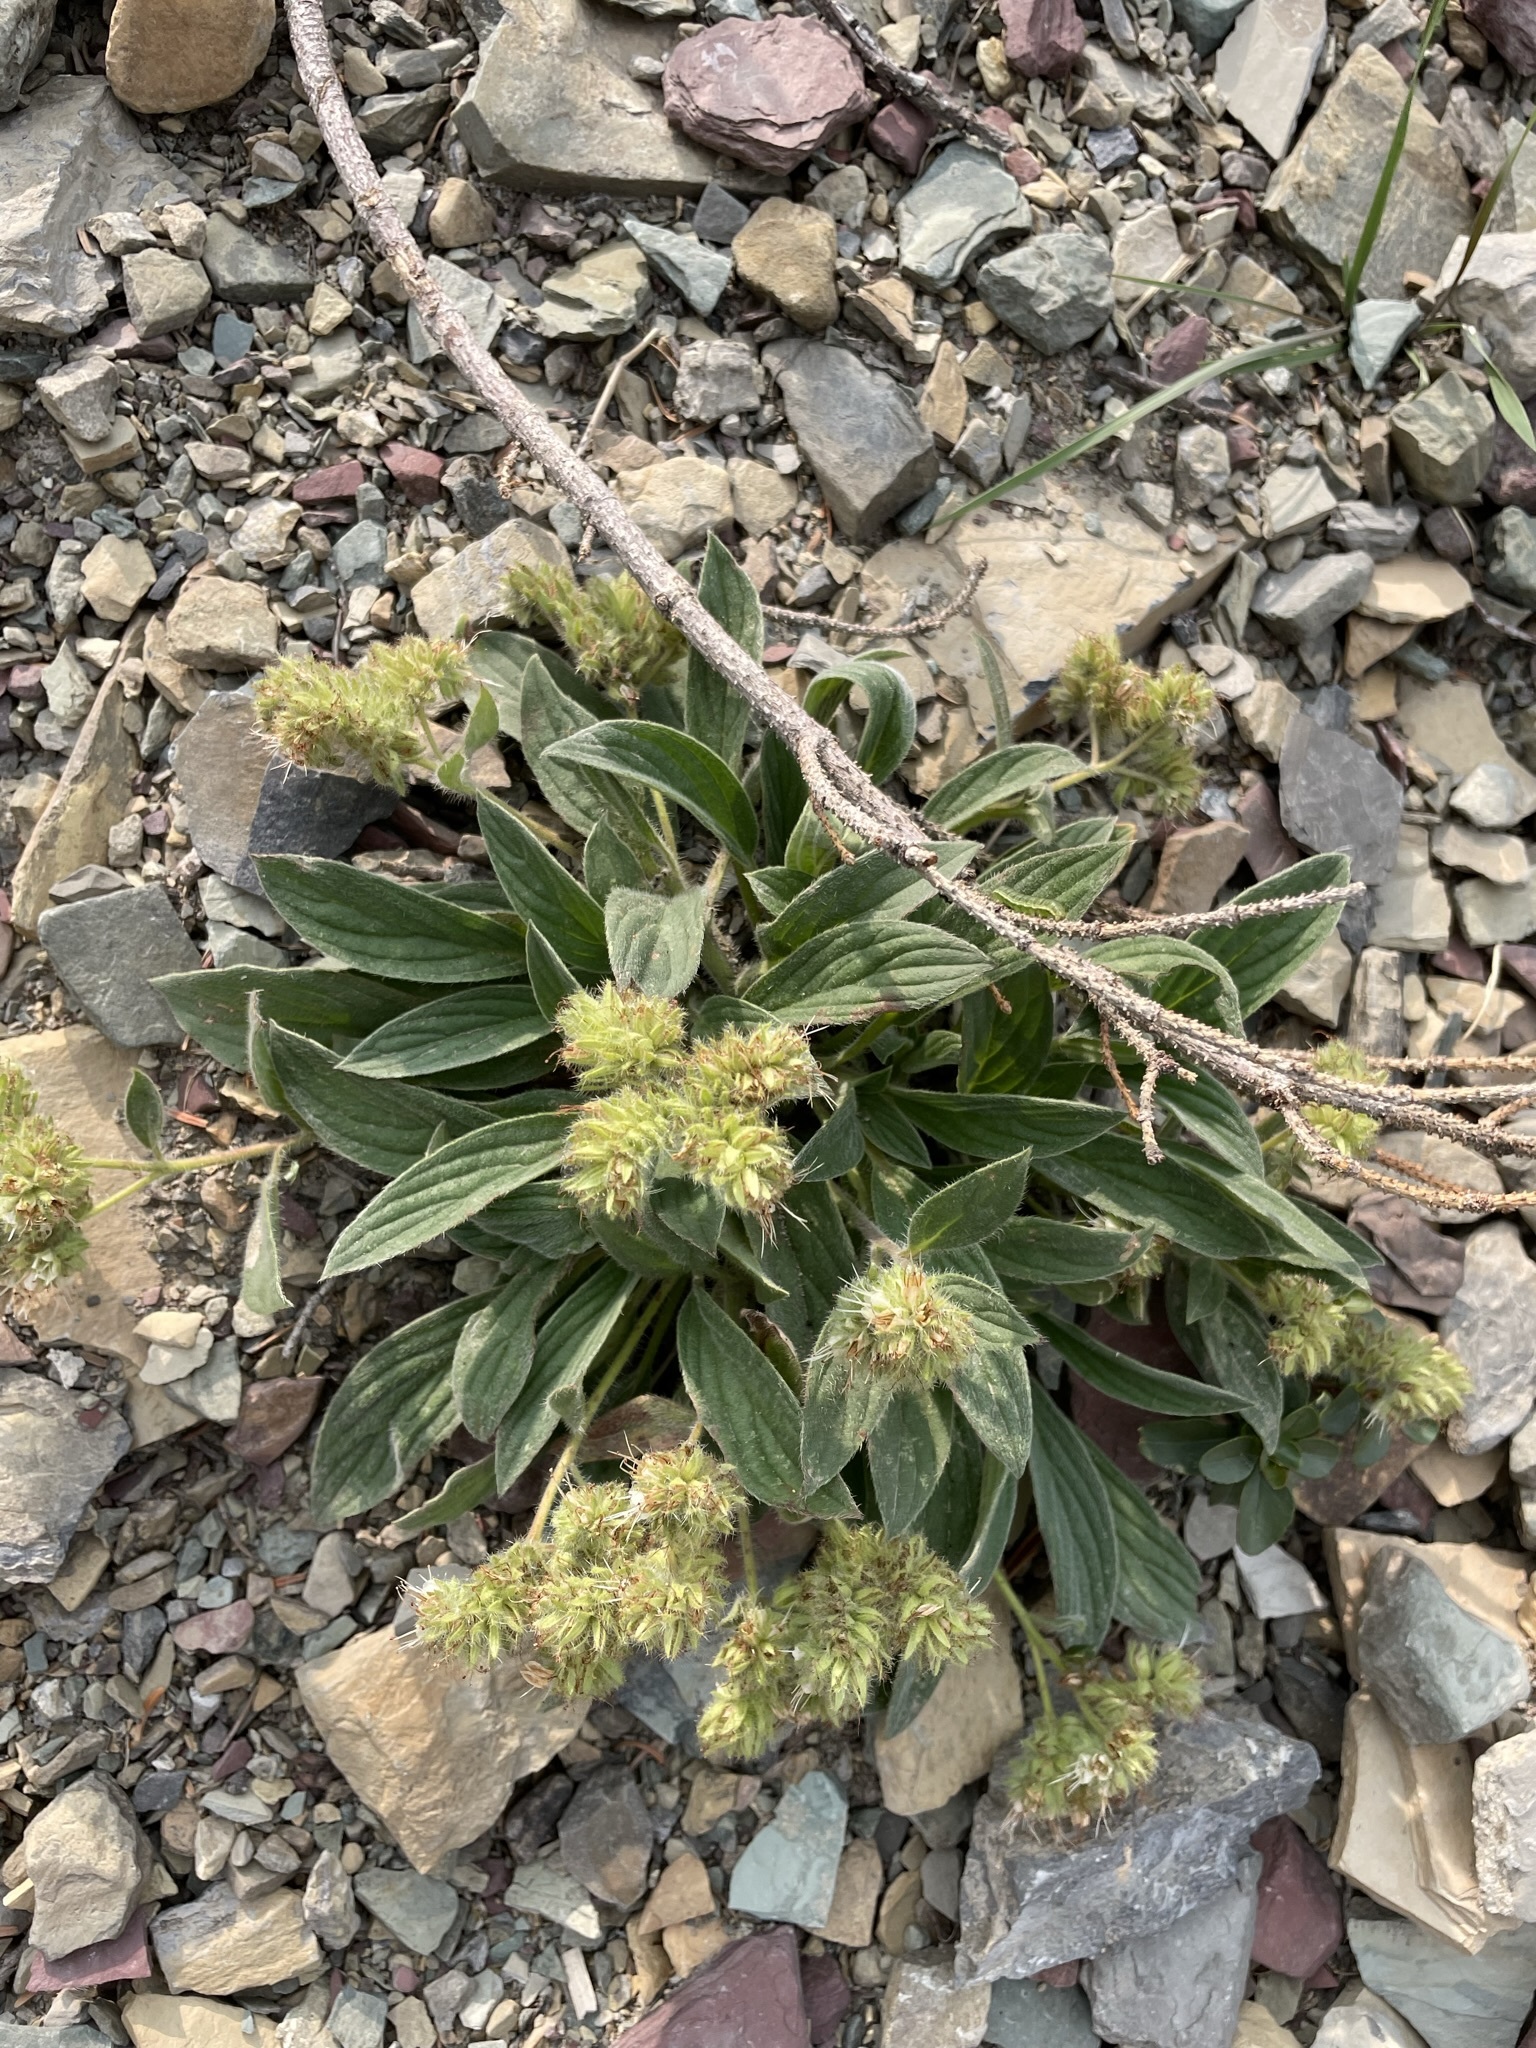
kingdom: Plantae
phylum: Tracheophyta
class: Magnoliopsida
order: Boraginales
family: Hydrophyllaceae
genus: Phacelia
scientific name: Phacelia hastata
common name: Silver-leaved phacelia
